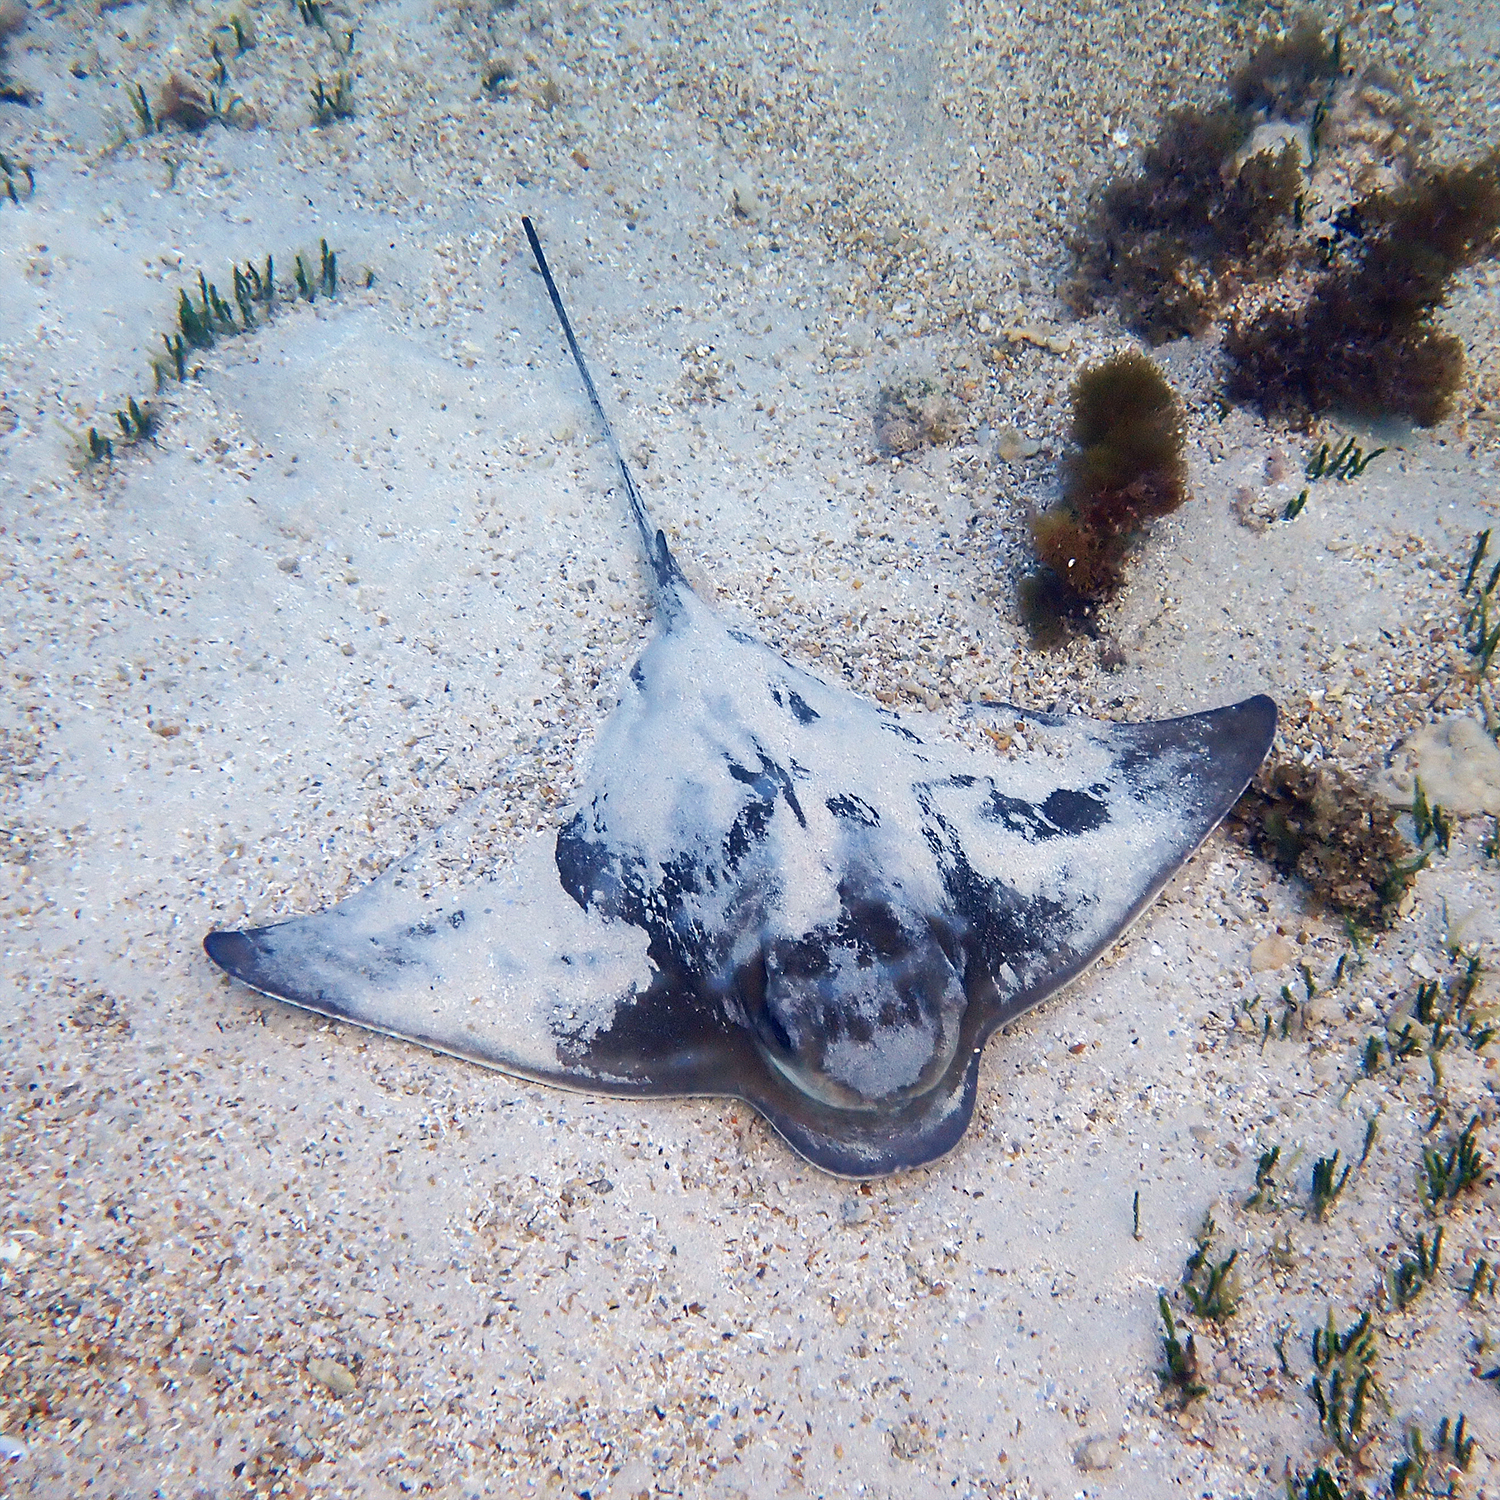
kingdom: Animalia
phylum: Chordata
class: Elasmobranchii
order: Myliobatiformes
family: Myliobatidae
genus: Myliobatis
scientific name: Myliobatis tenuicaudatus
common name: Eagle ray
